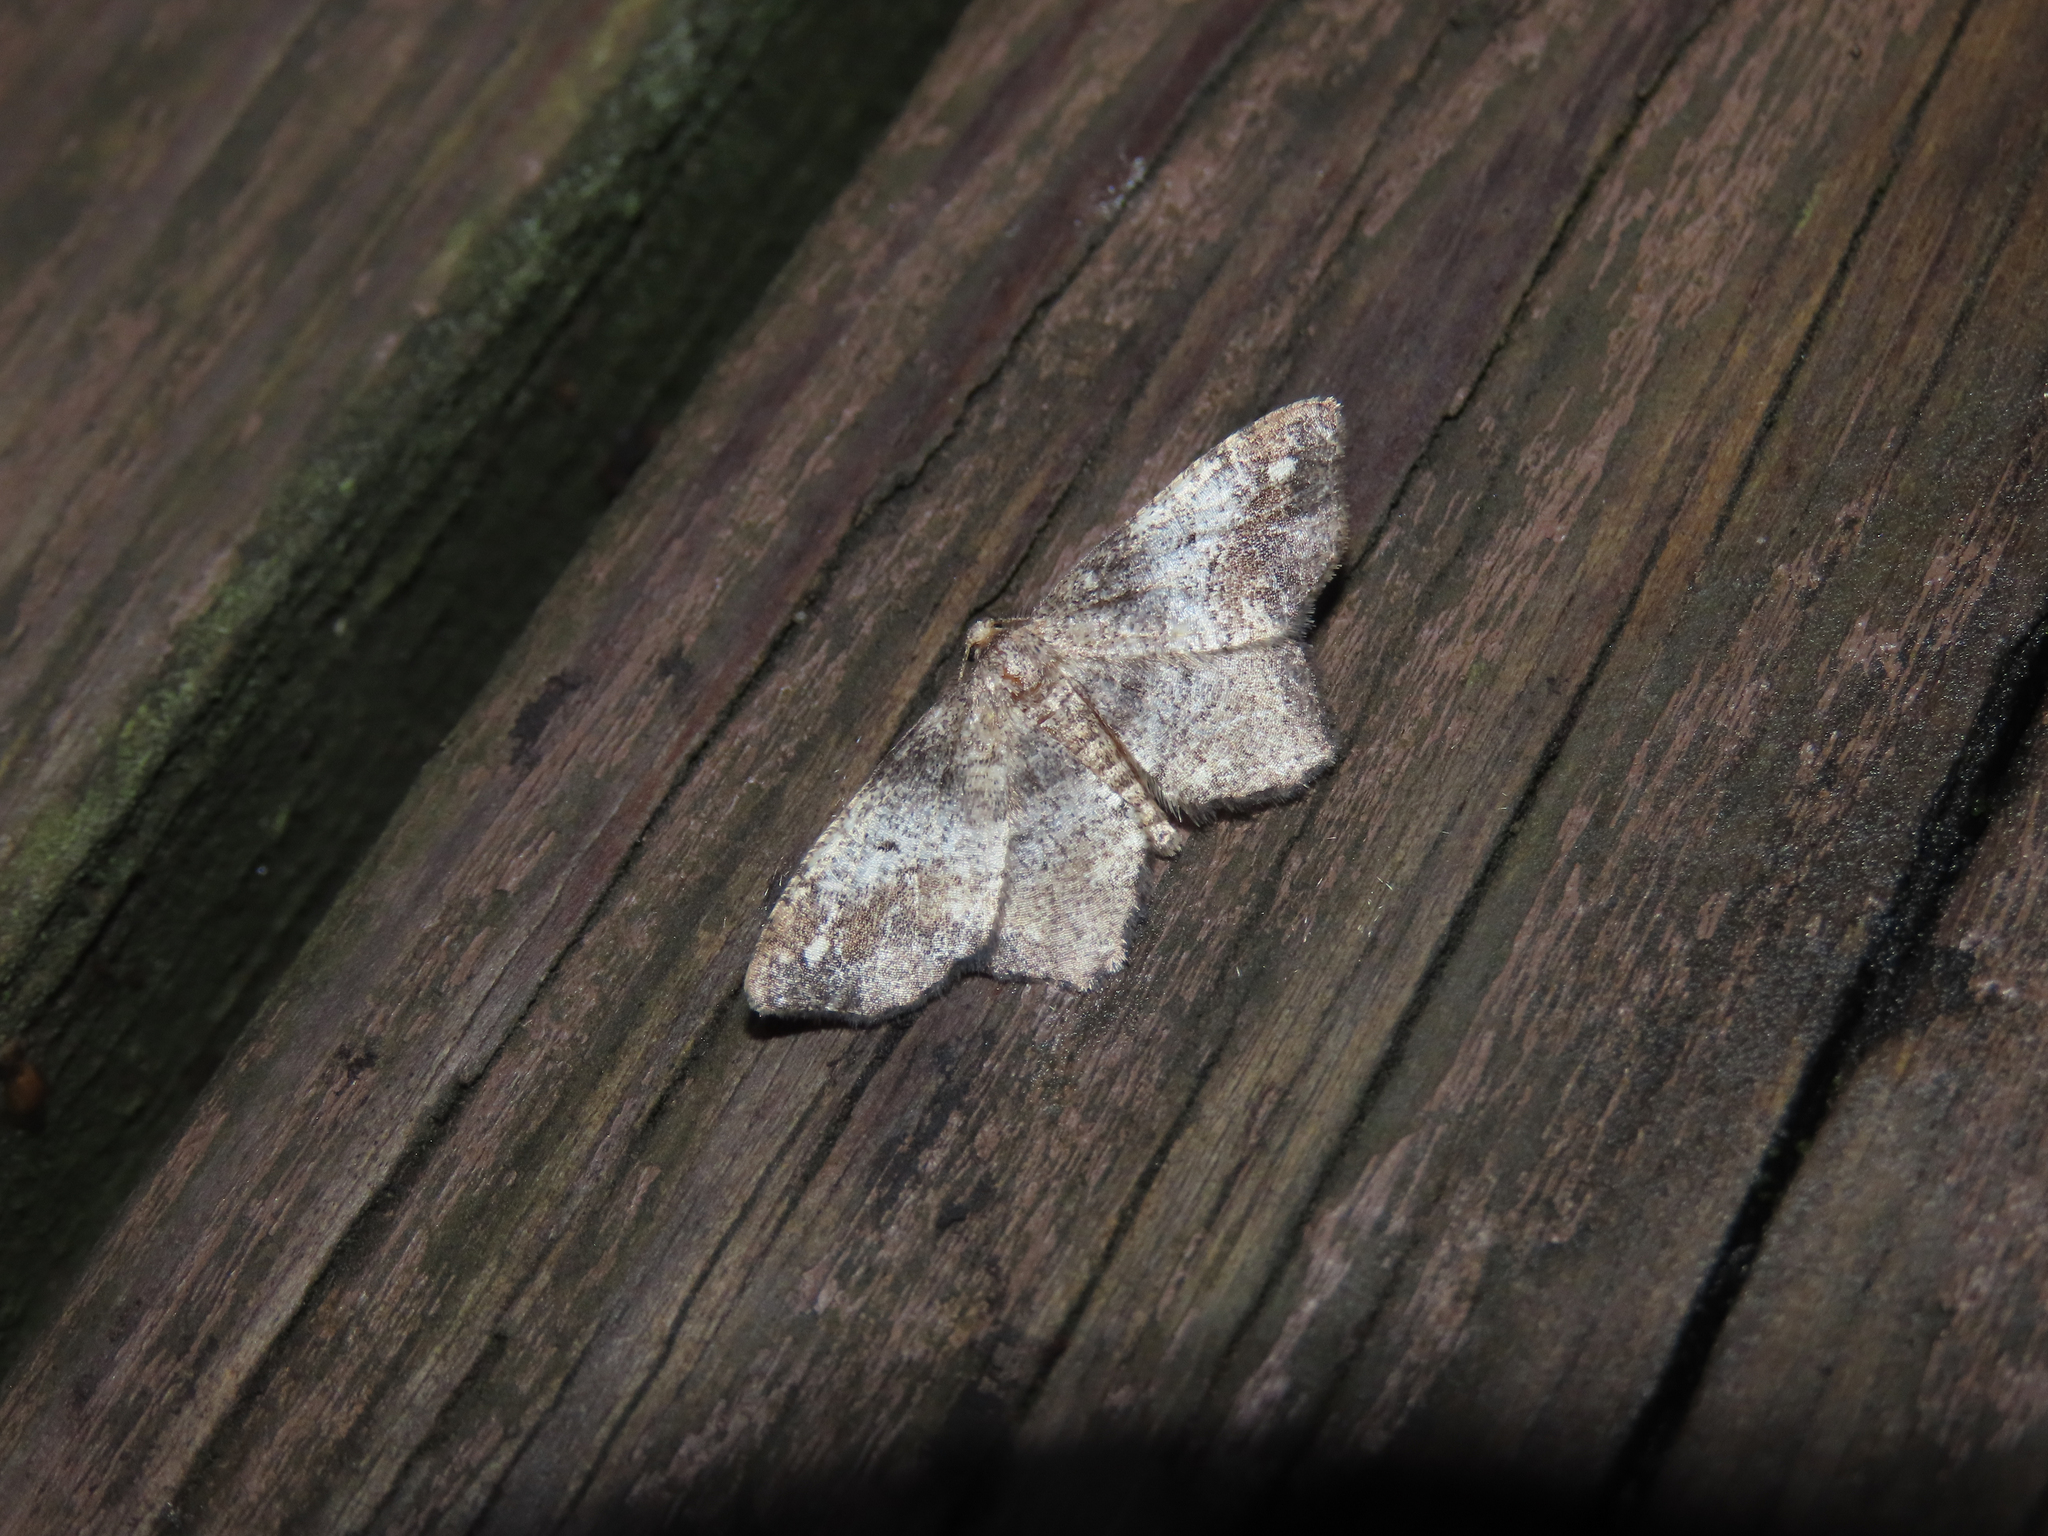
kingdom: Animalia
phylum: Arthropoda
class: Insecta
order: Lepidoptera
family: Geometridae
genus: Hypagyrtis
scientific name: Hypagyrtis unipunctata
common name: One-spotted variant
